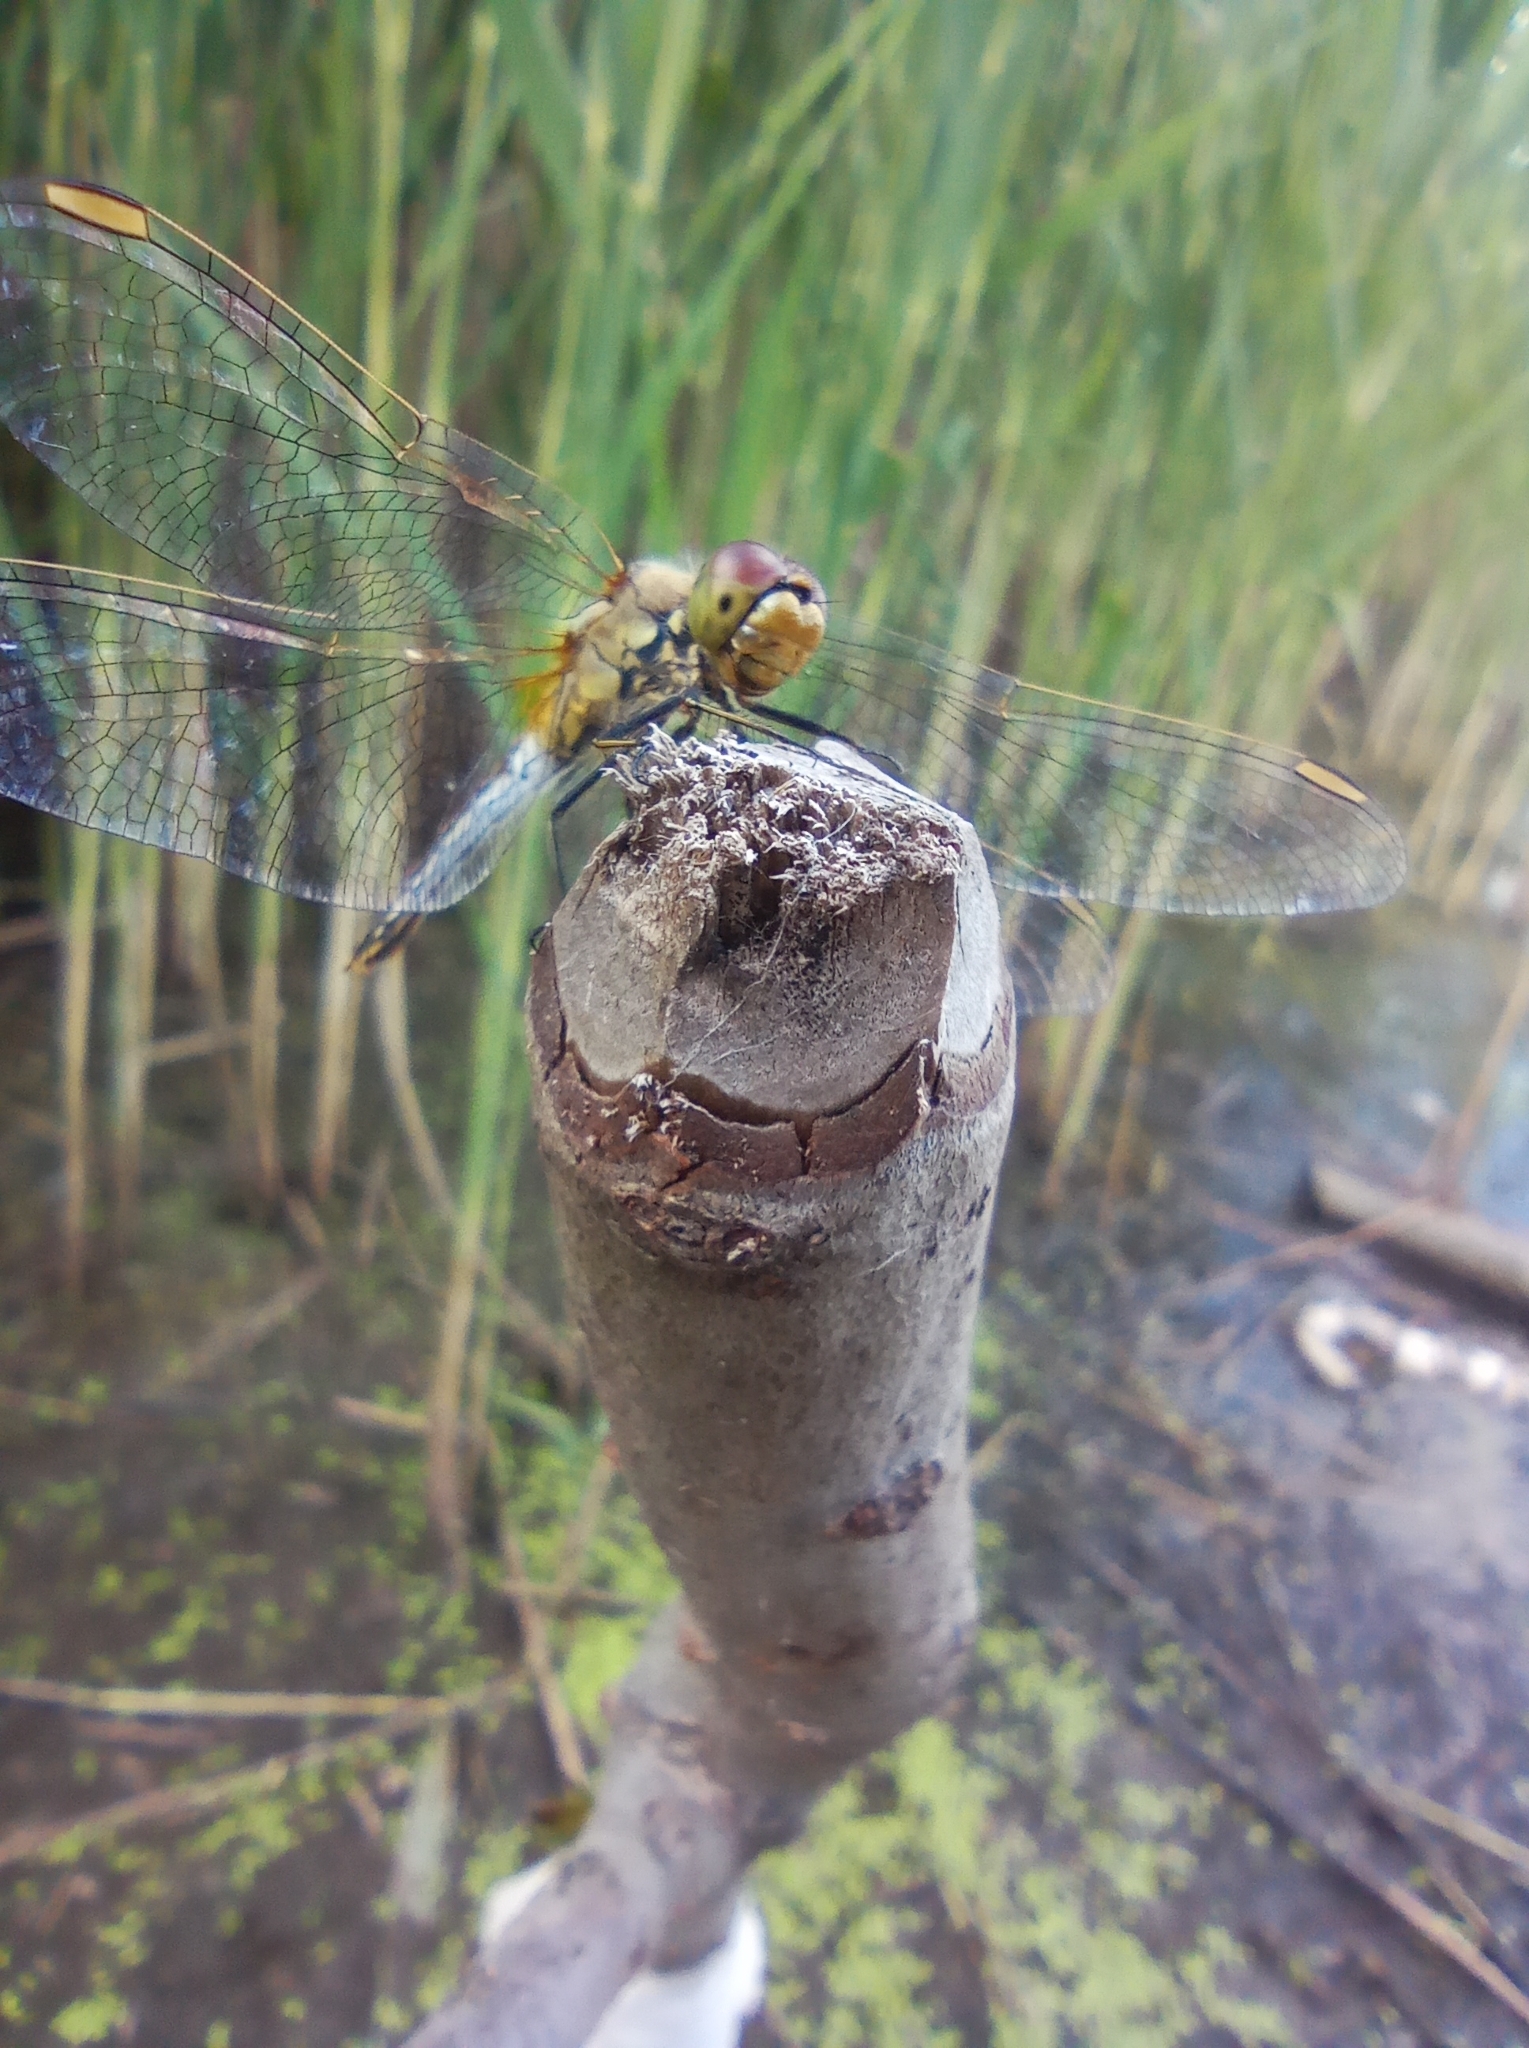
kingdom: Animalia
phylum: Arthropoda
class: Insecta
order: Odonata
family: Libellulidae
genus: Sympetrum
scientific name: Sympetrum flaveolum
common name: Yellow-winged darter
